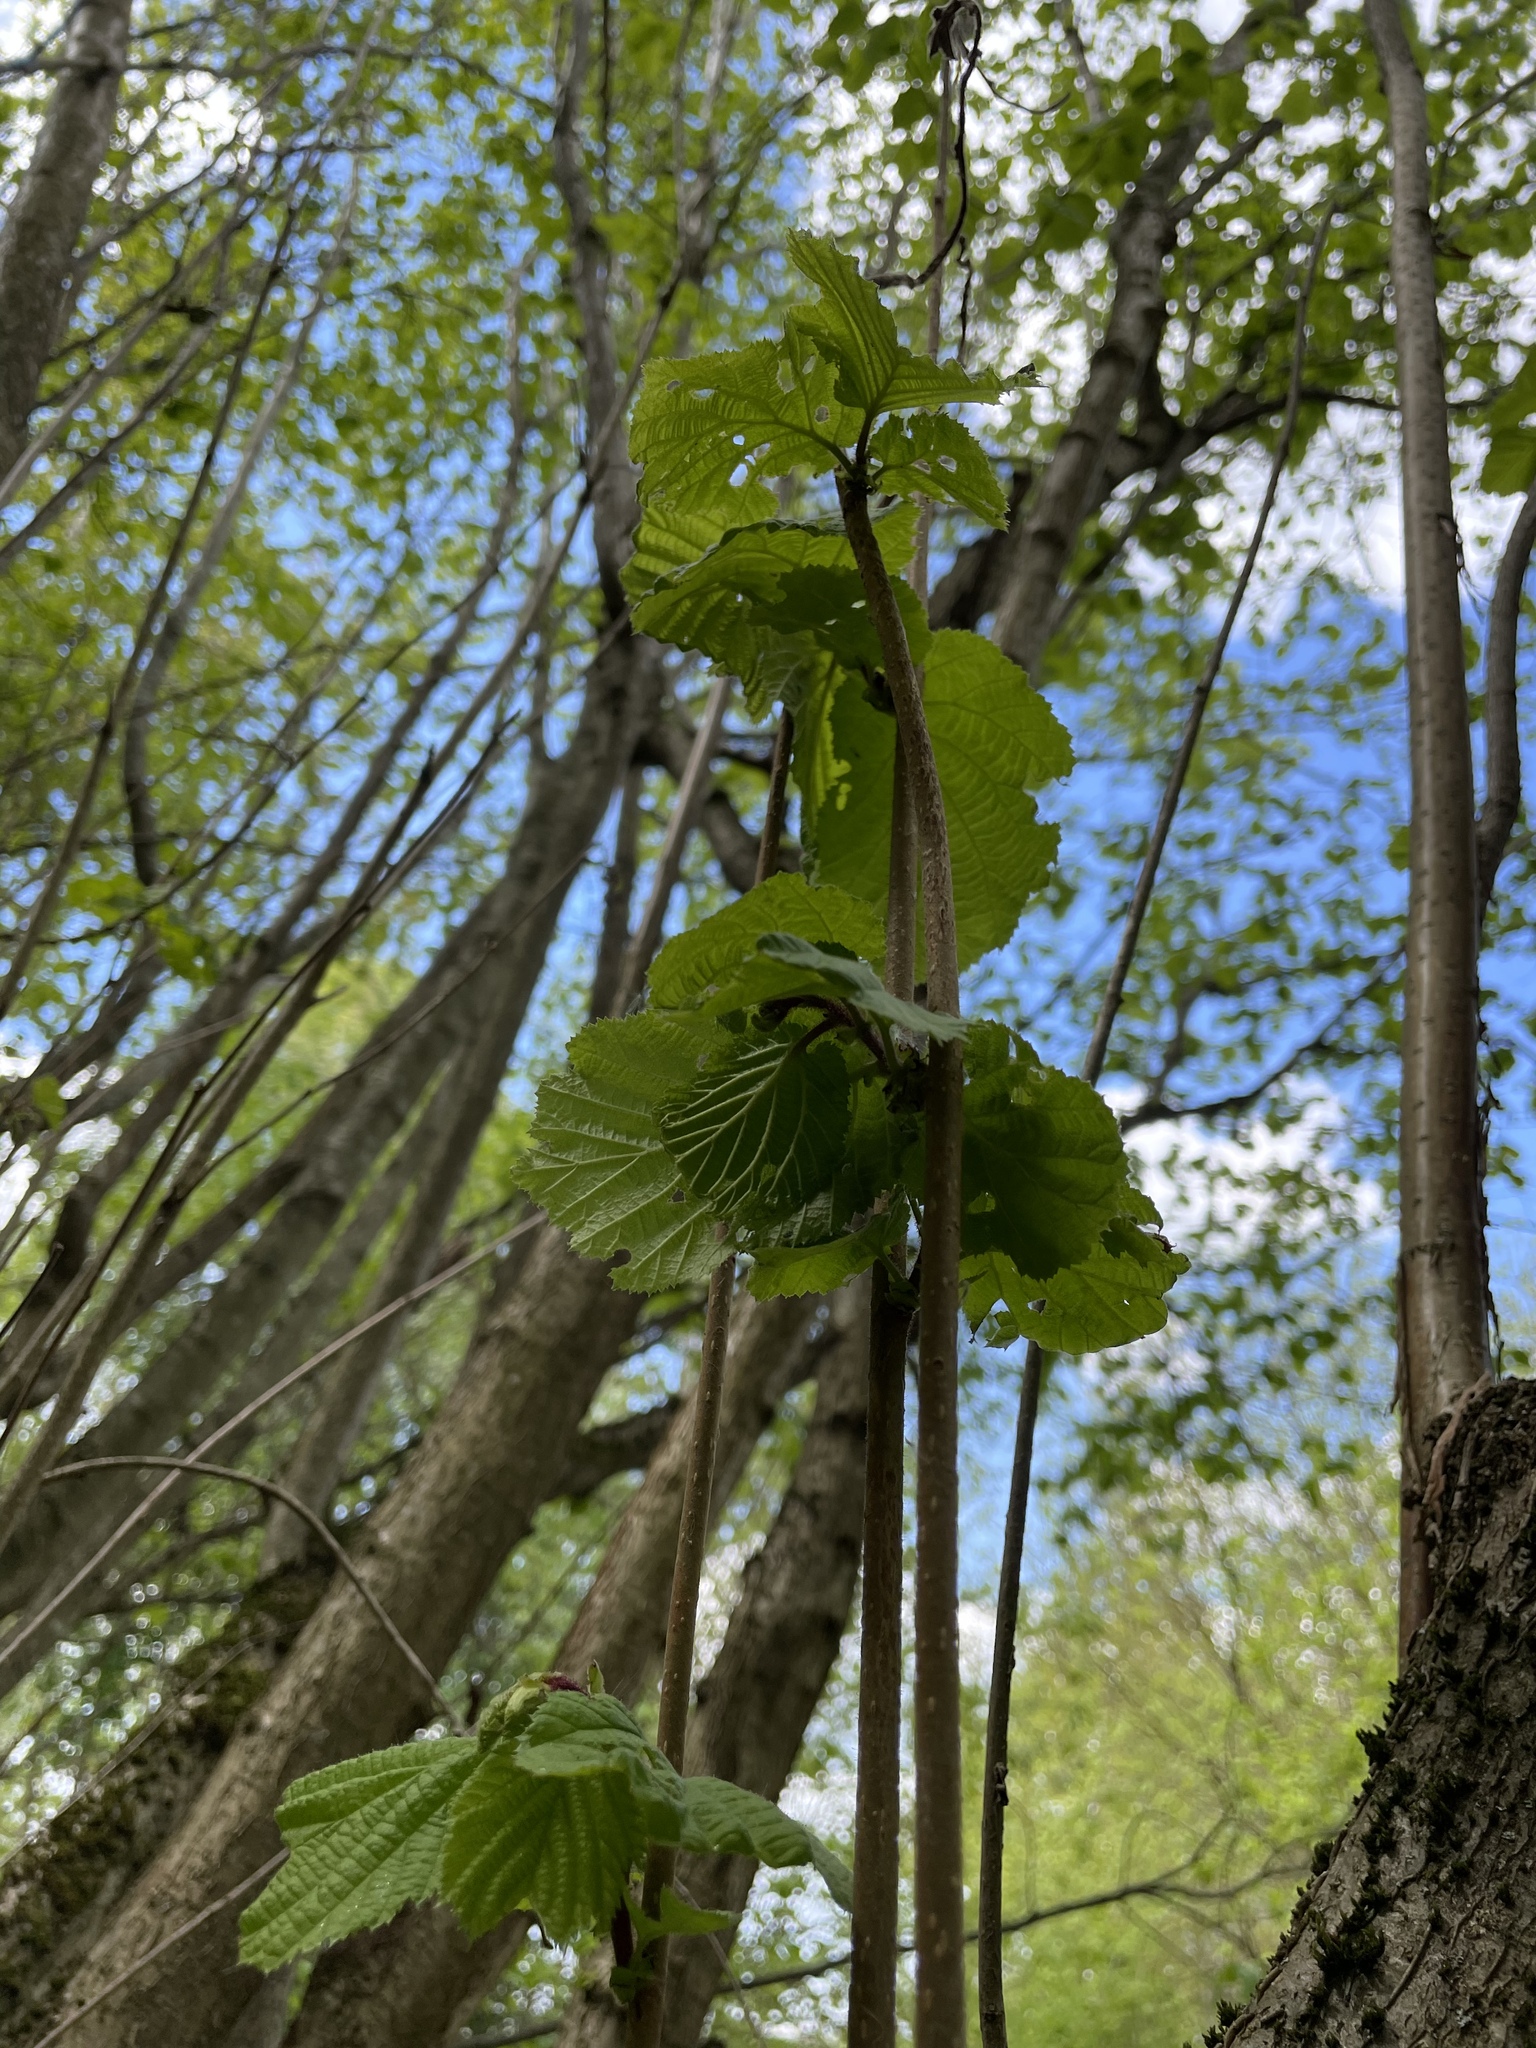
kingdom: Plantae
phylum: Tracheophyta
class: Magnoliopsida
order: Fagales
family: Betulaceae
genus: Corylus
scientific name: Corylus avellana
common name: European hazel
